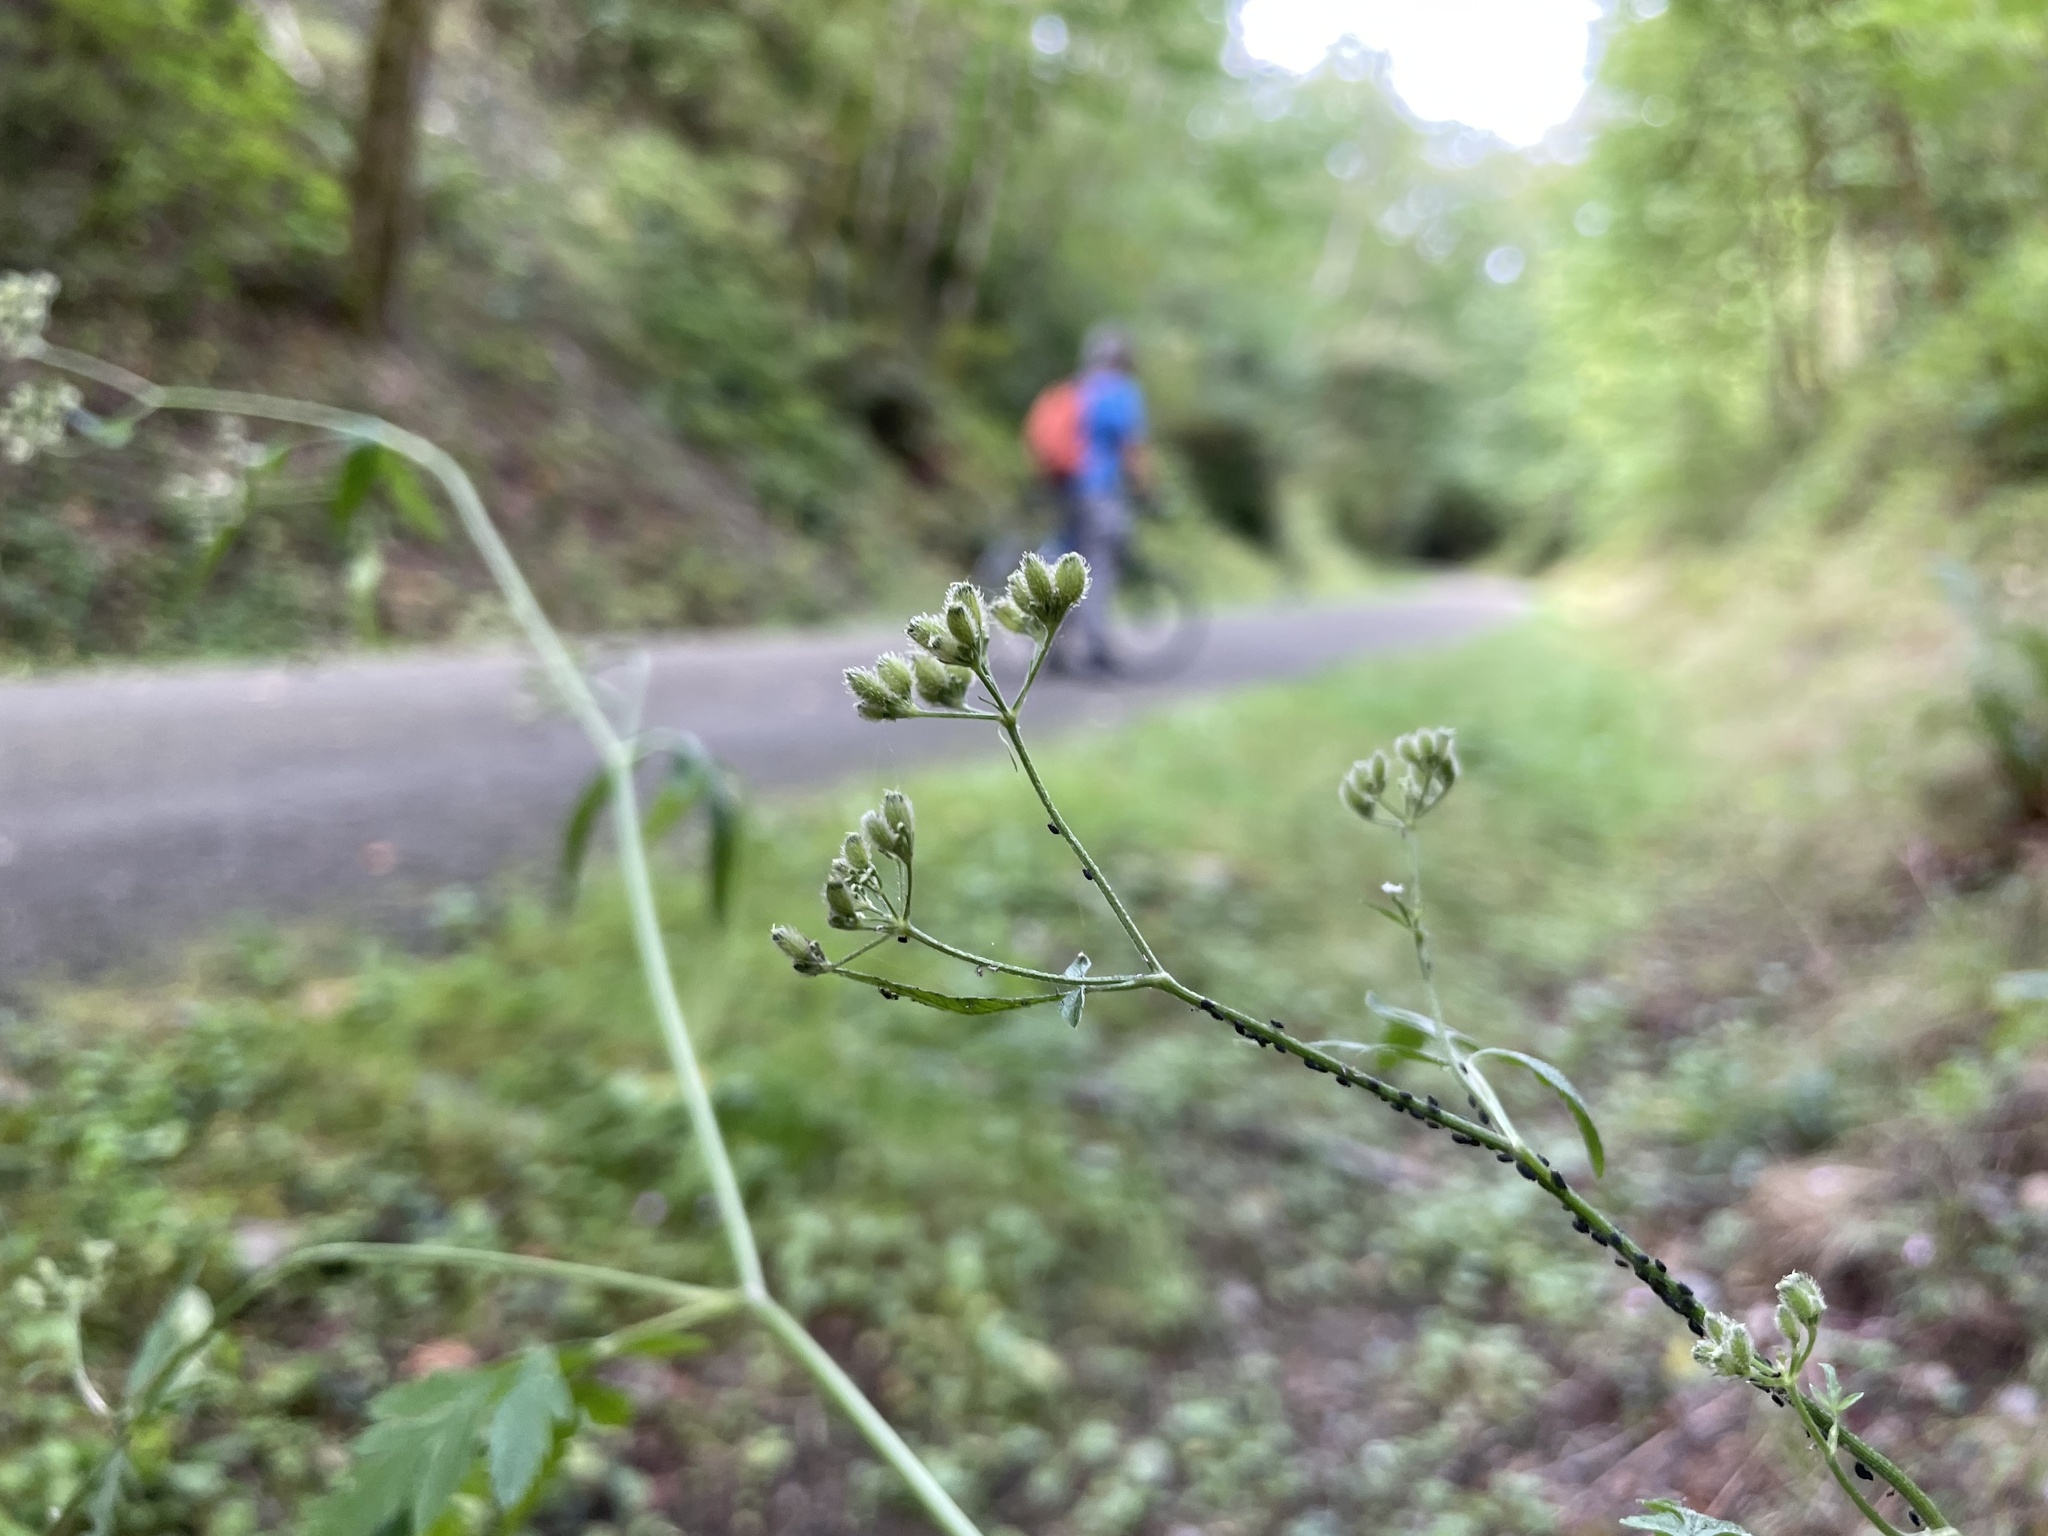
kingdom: Plantae
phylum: Tracheophyta
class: Magnoliopsida
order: Apiales
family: Apiaceae
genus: Torilis
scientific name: Torilis japonica
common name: Upright hedge-parsley
